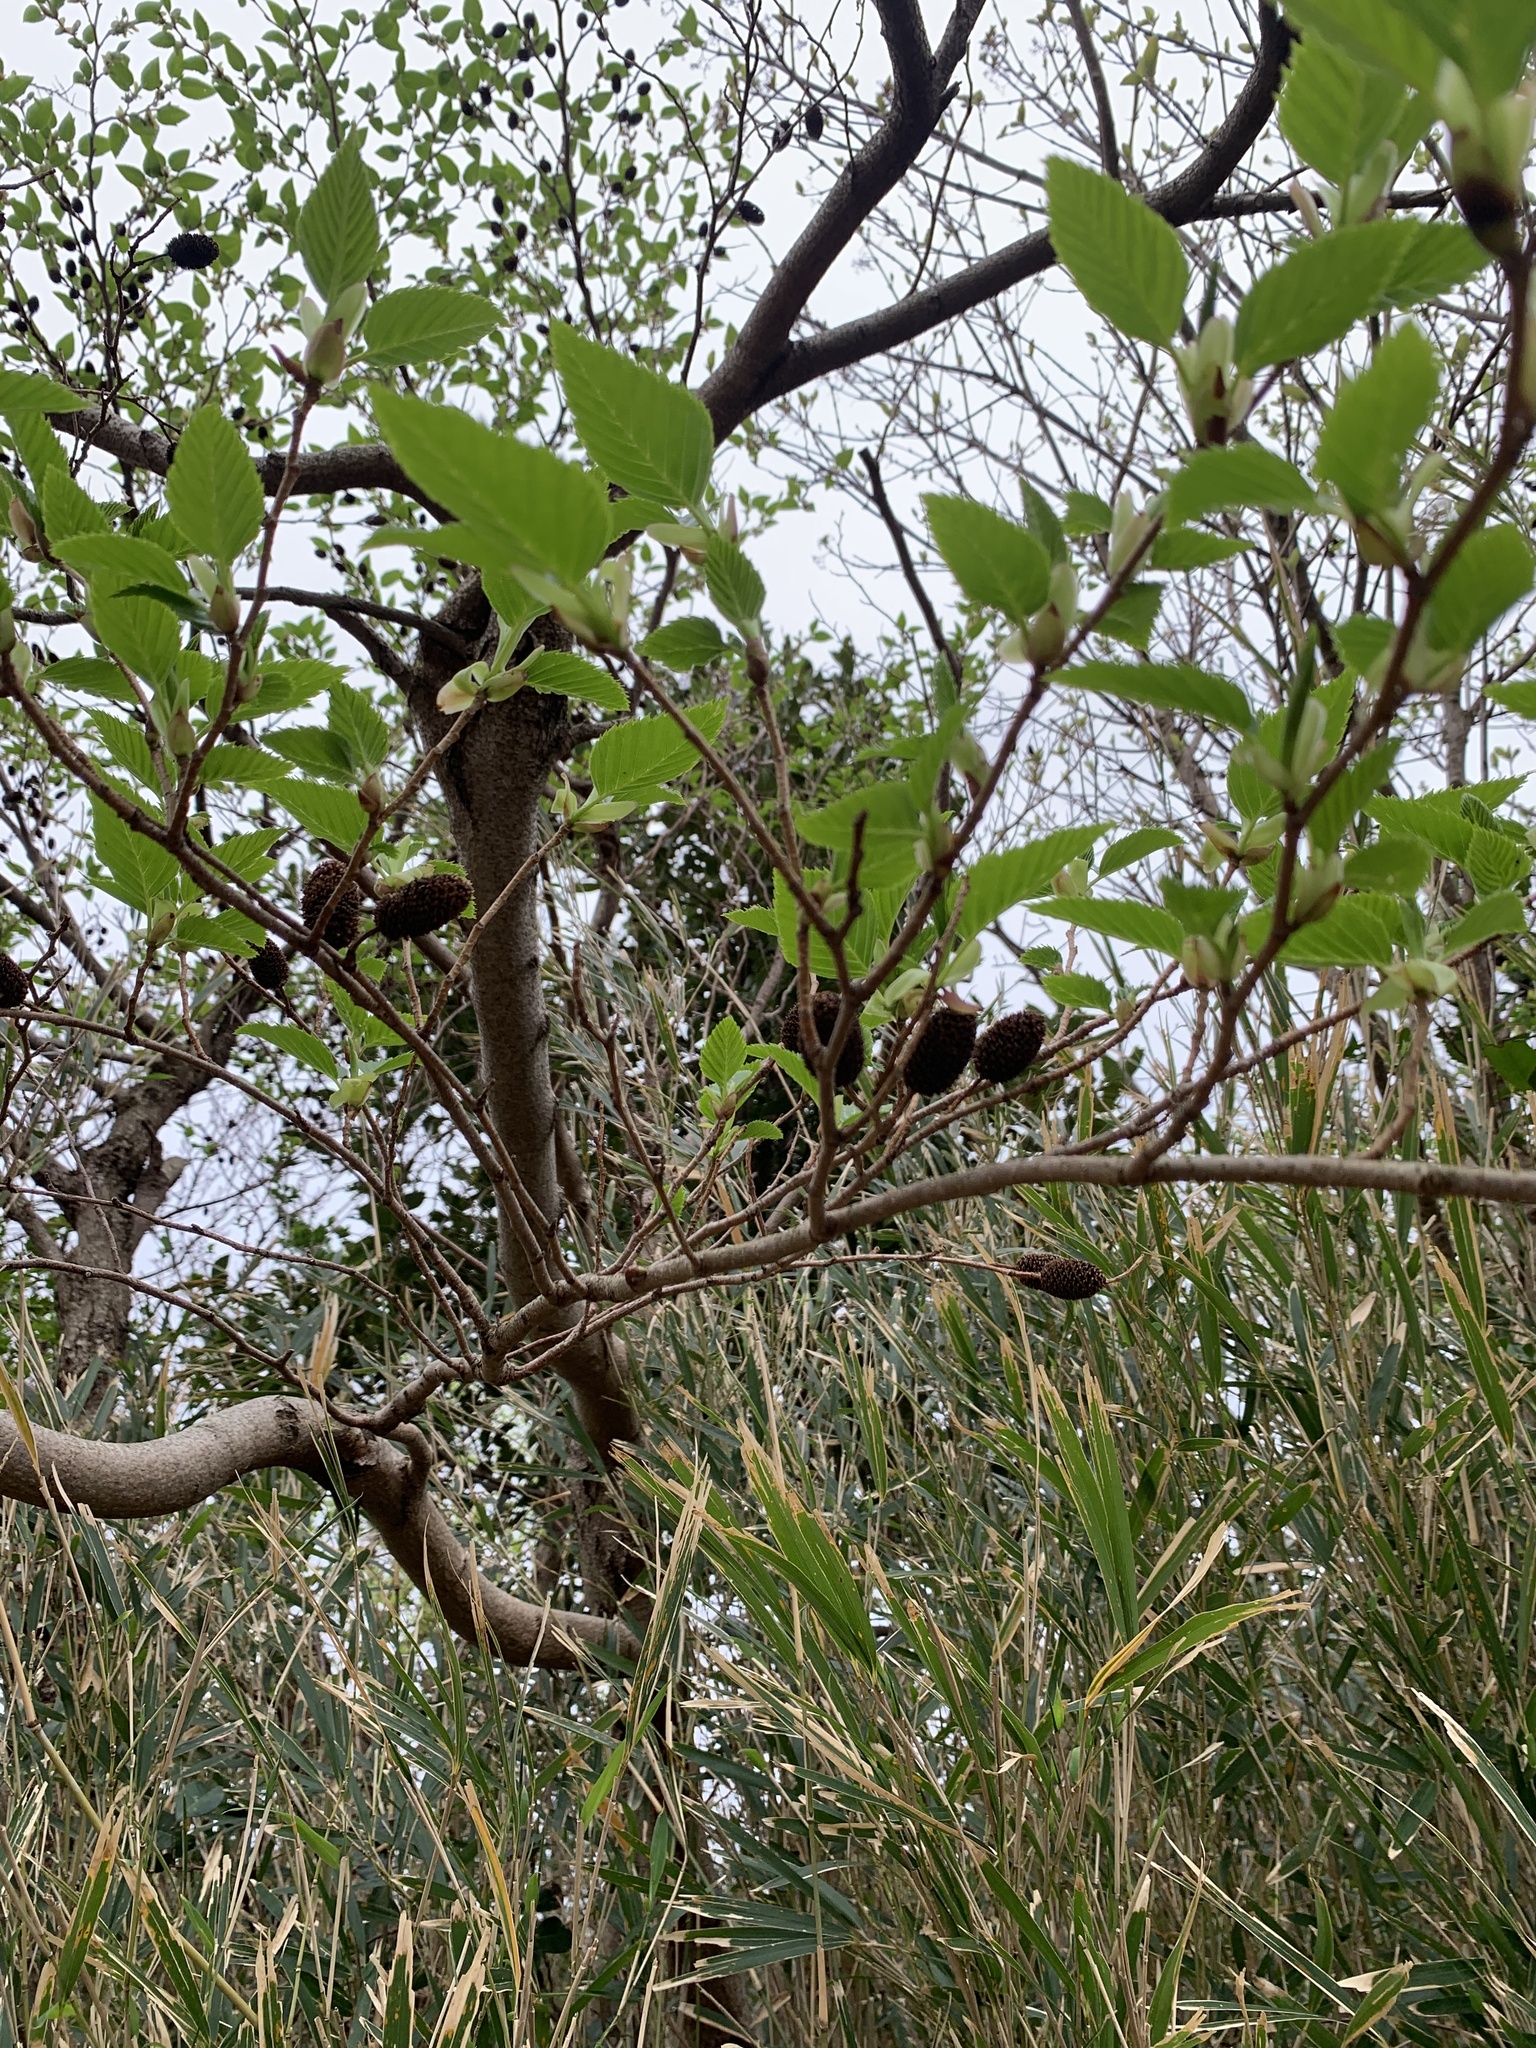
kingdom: Plantae
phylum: Tracheophyta
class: Magnoliopsida
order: Fagales
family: Betulaceae
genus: Alnus
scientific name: Alnus sieboldiana
